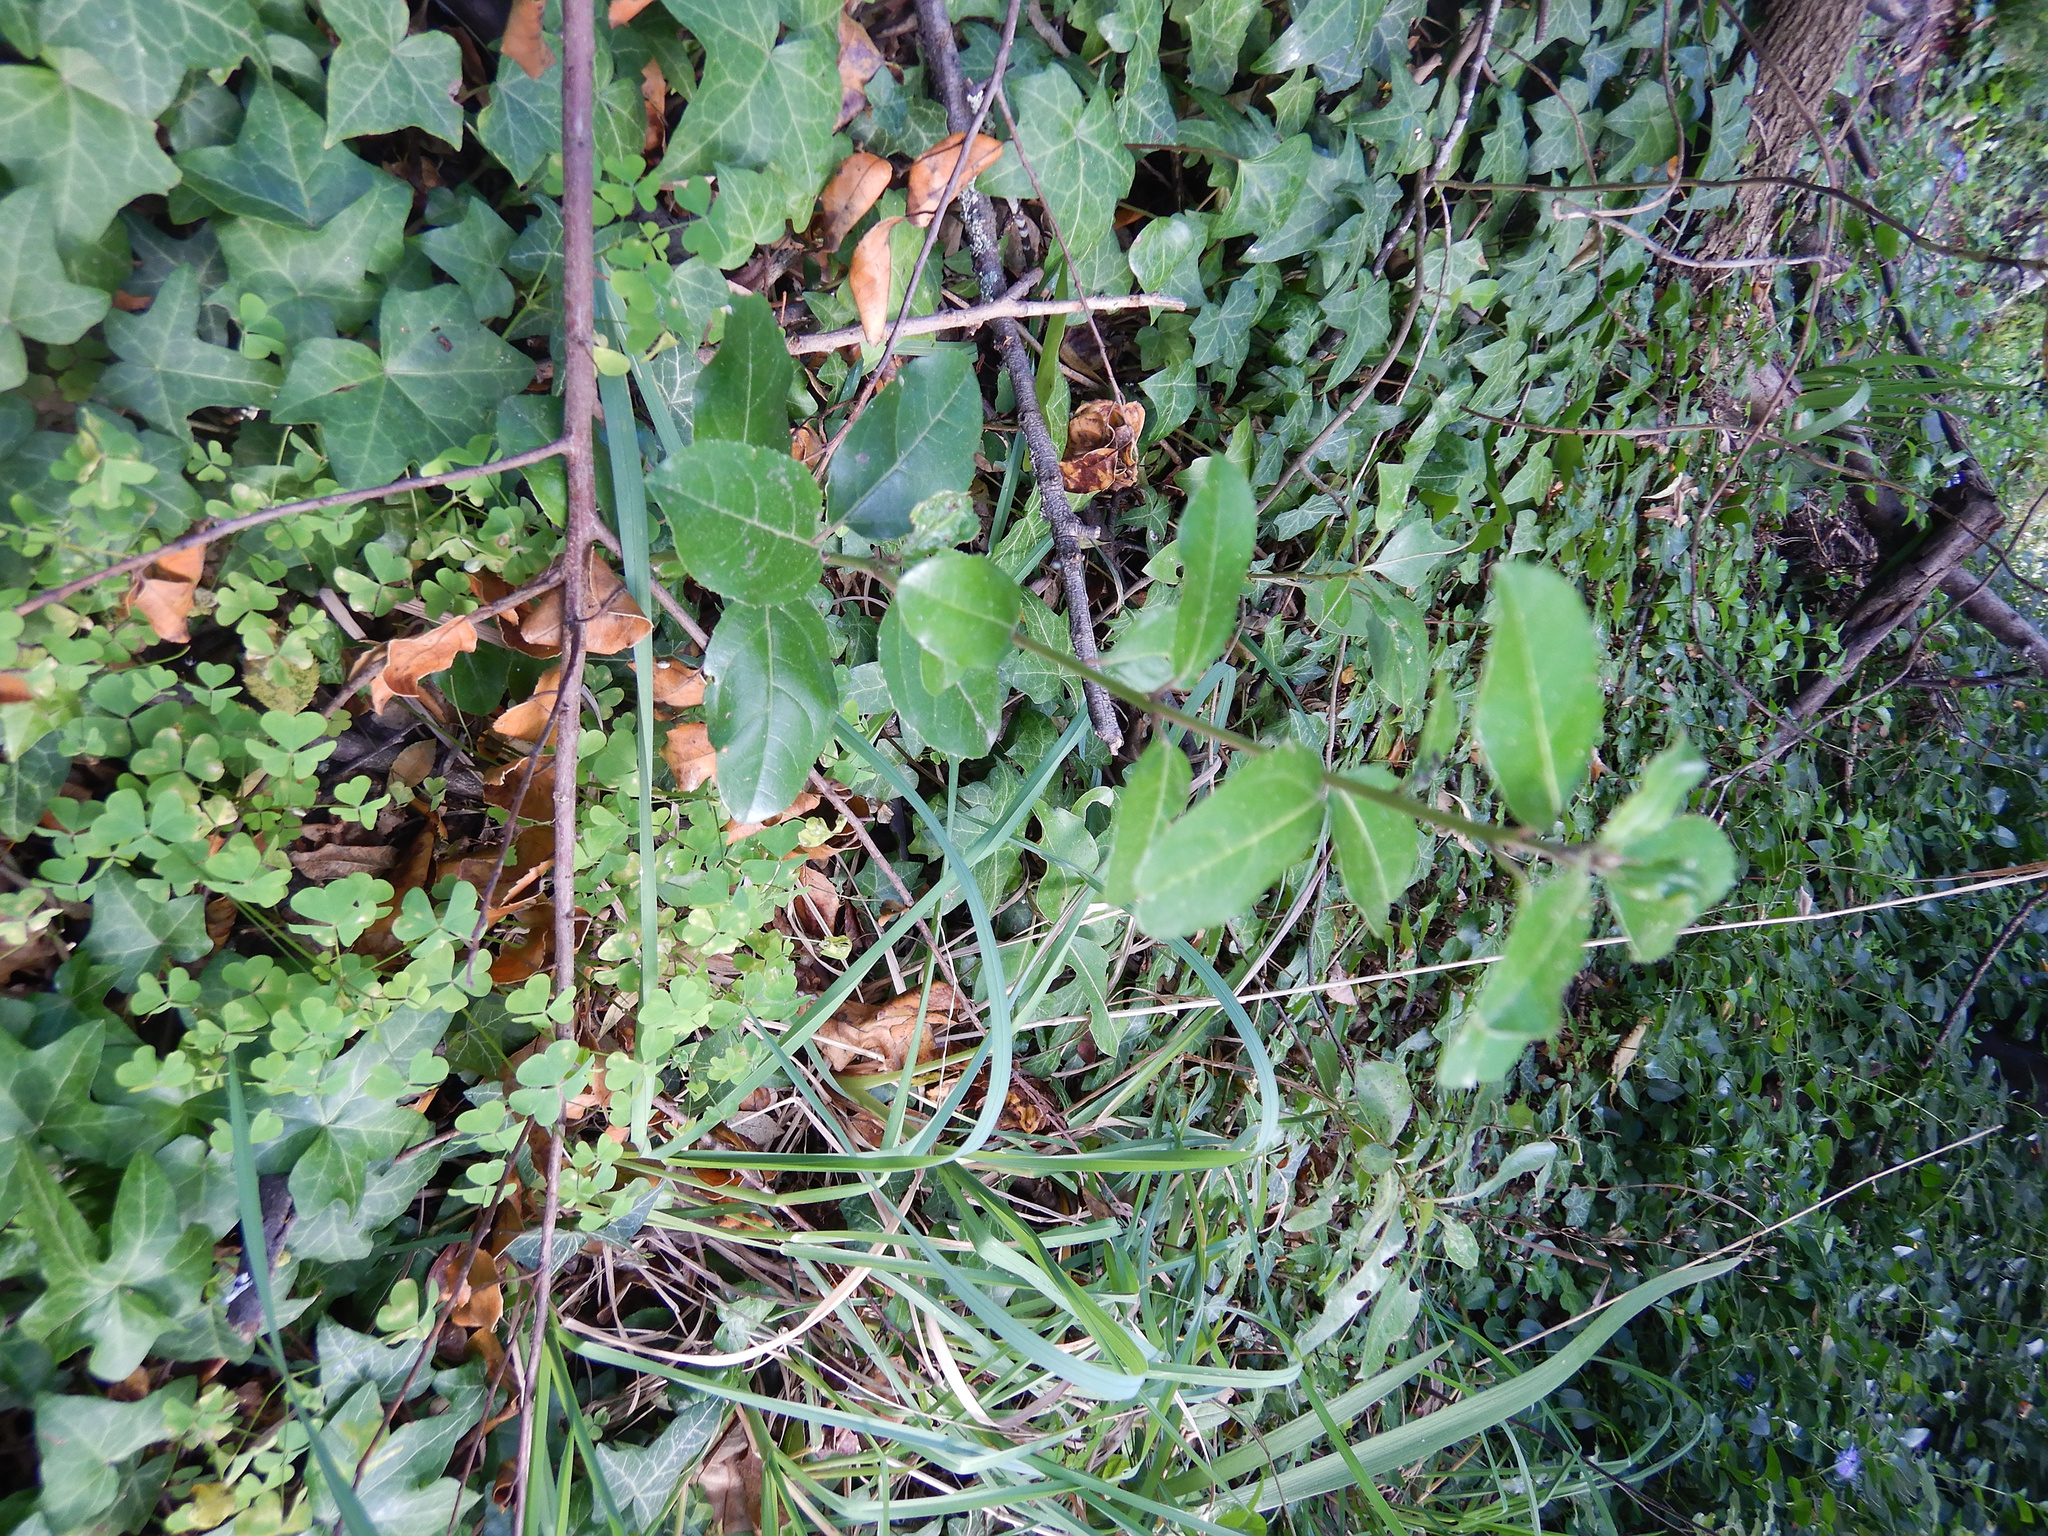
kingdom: Plantae
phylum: Tracheophyta
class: Magnoliopsida
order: Rosales
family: Rhamnaceae
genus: Rhamnus
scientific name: Rhamnus alaternus
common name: Mediterranean buckthorn
